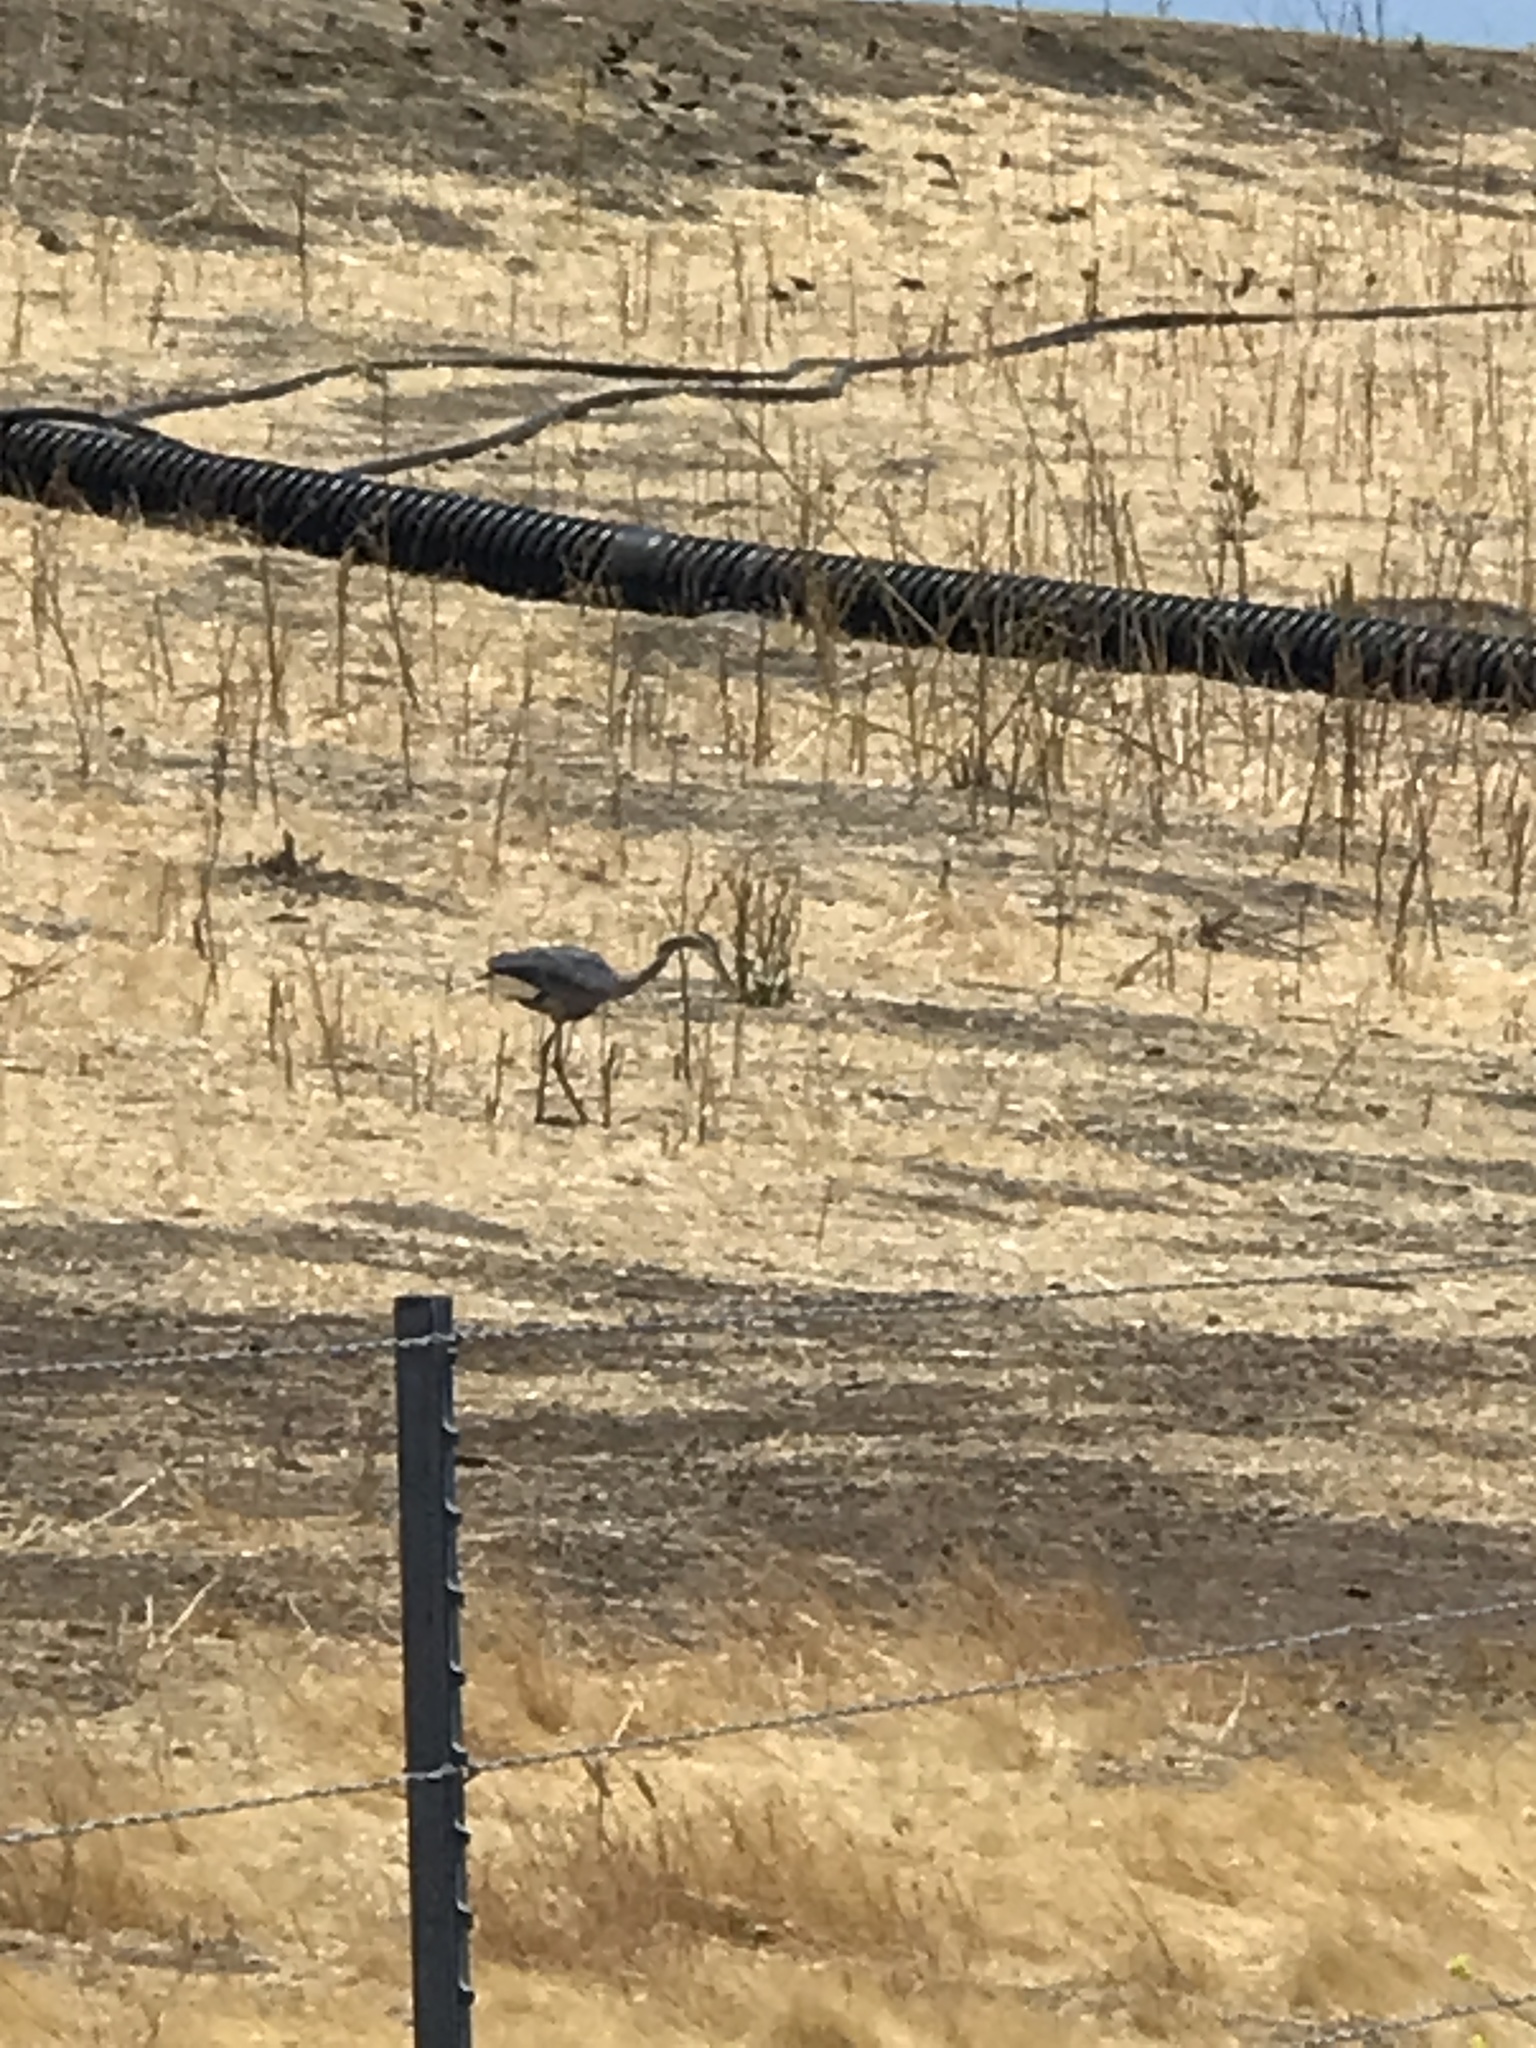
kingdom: Animalia
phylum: Chordata
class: Aves
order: Pelecaniformes
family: Ardeidae
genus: Ardea
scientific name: Ardea herodias
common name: Great blue heron
